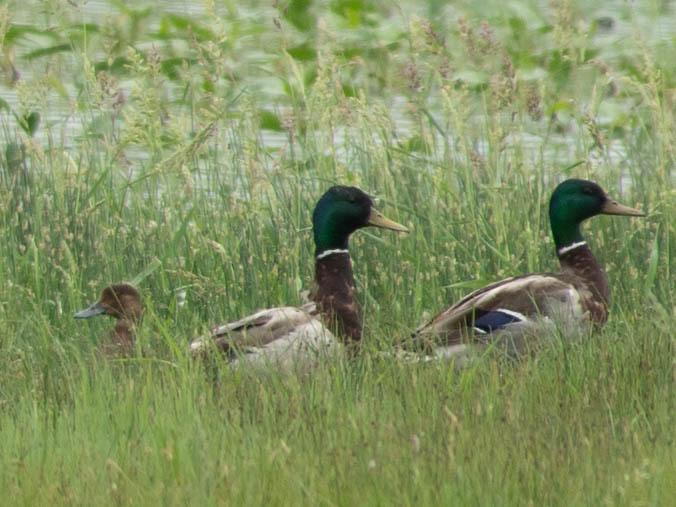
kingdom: Animalia
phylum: Chordata
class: Aves
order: Anseriformes
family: Anatidae
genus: Anas
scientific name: Anas platyrhynchos
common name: Mallard
